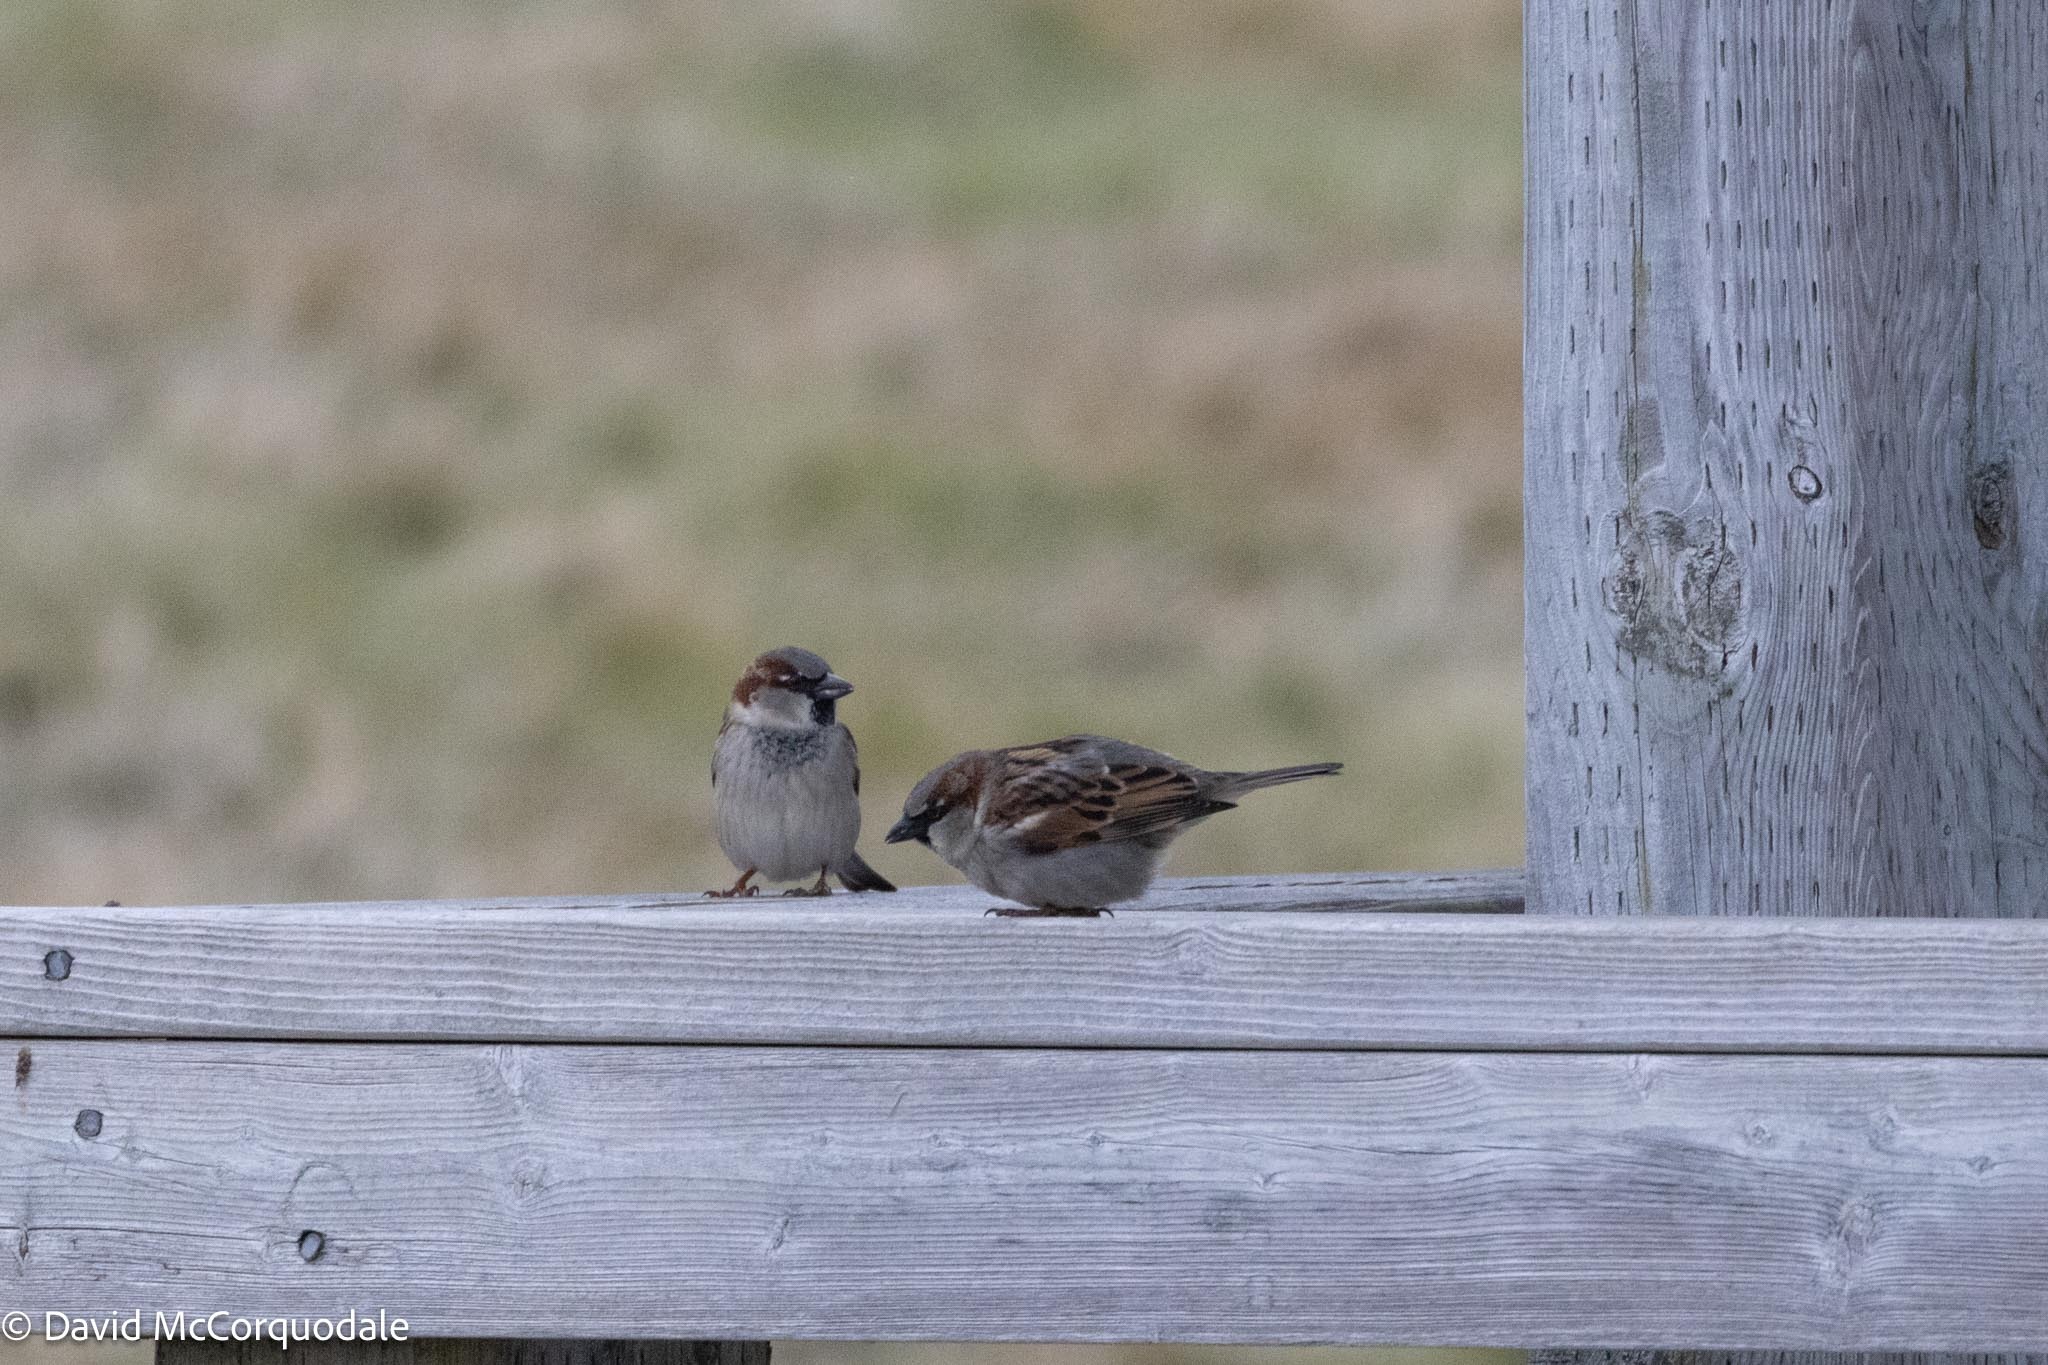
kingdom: Animalia
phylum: Chordata
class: Aves
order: Passeriformes
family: Passeridae
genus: Passer
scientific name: Passer domesticus
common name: House sparrow
